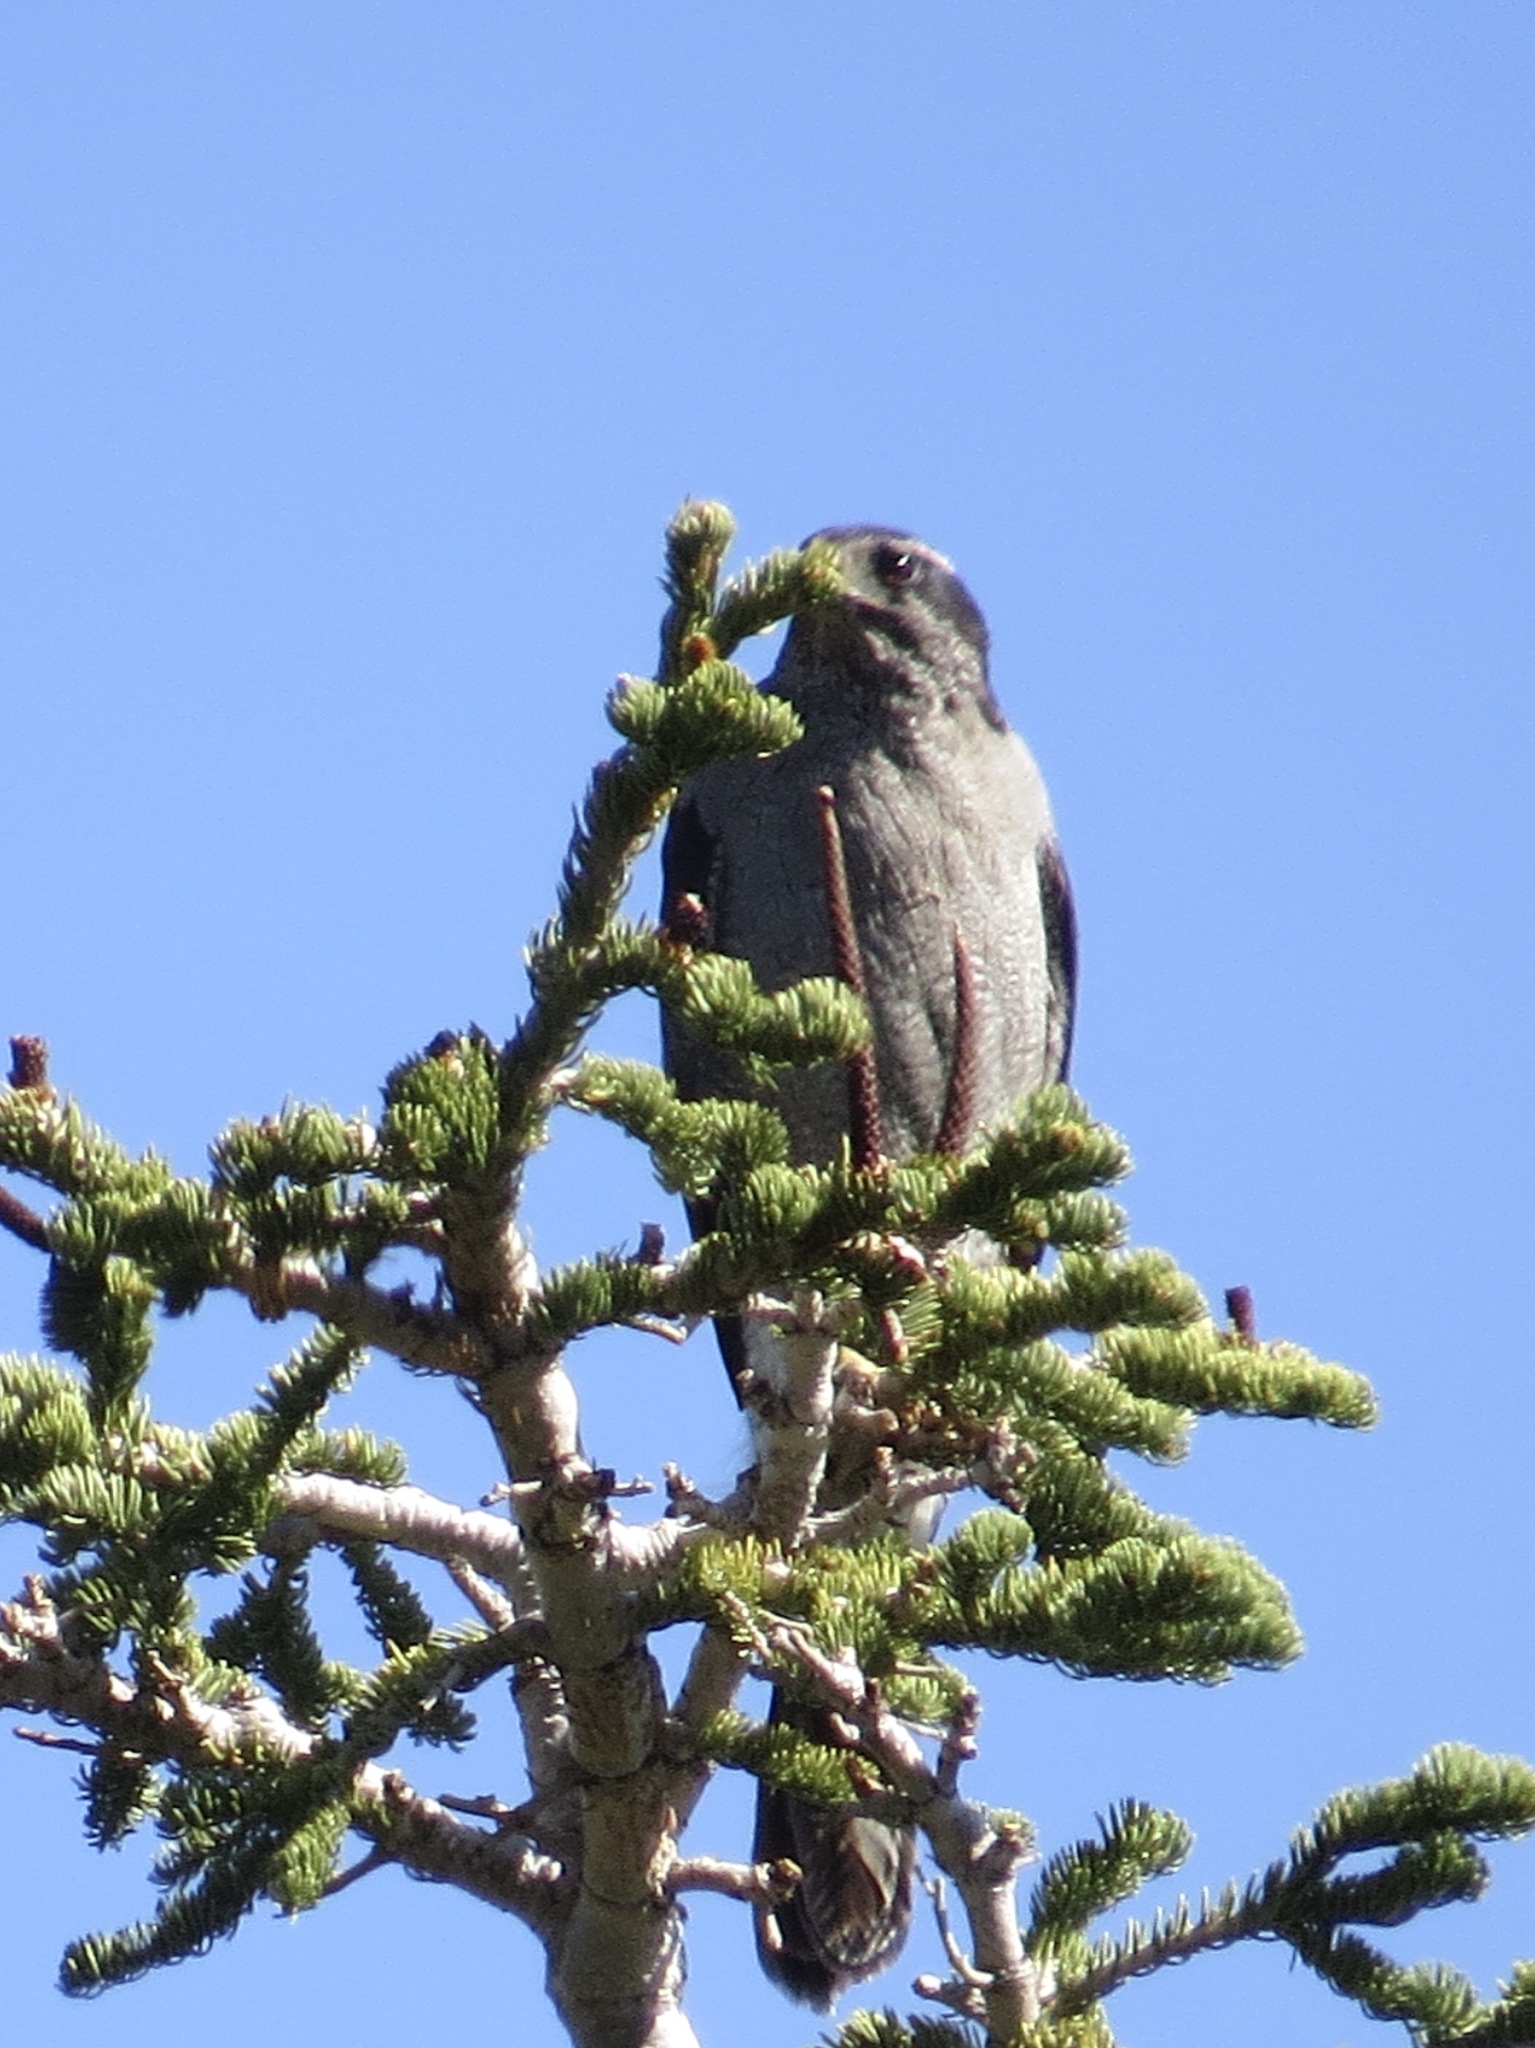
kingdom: Animalia
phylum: Chordata
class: Aves
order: Accipitriformes
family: Accipitridae
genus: Accipiter
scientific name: Accipiter gentilis
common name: Northern goshawk
